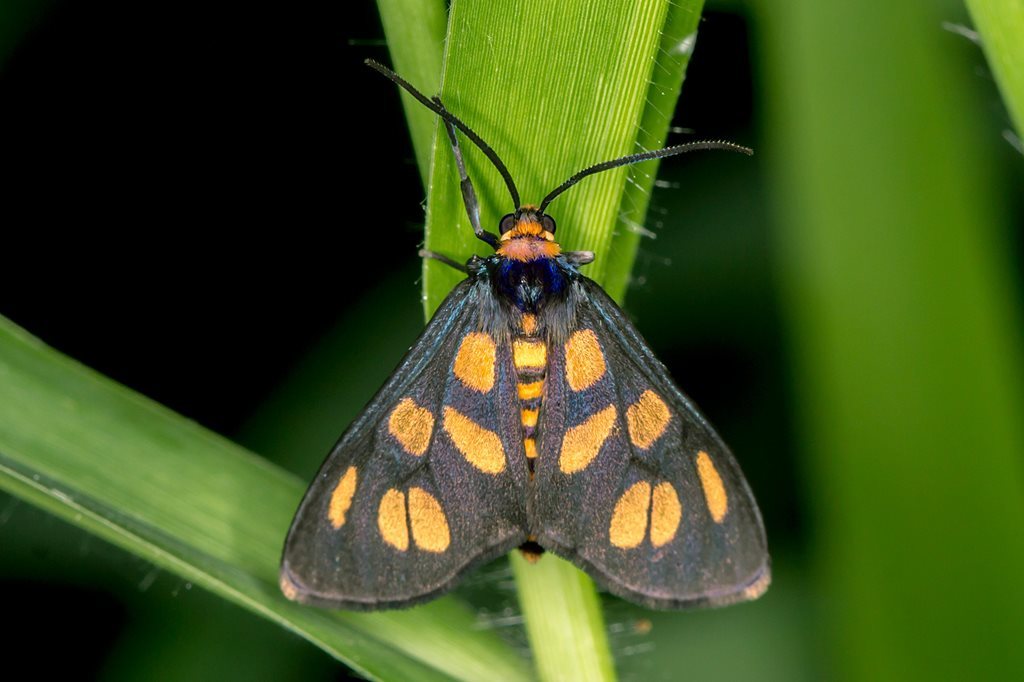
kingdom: Animalia
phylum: Arthropoda
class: Insecta
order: Lepidoptera
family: Erebidae
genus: Amata
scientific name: Amata humeralis
